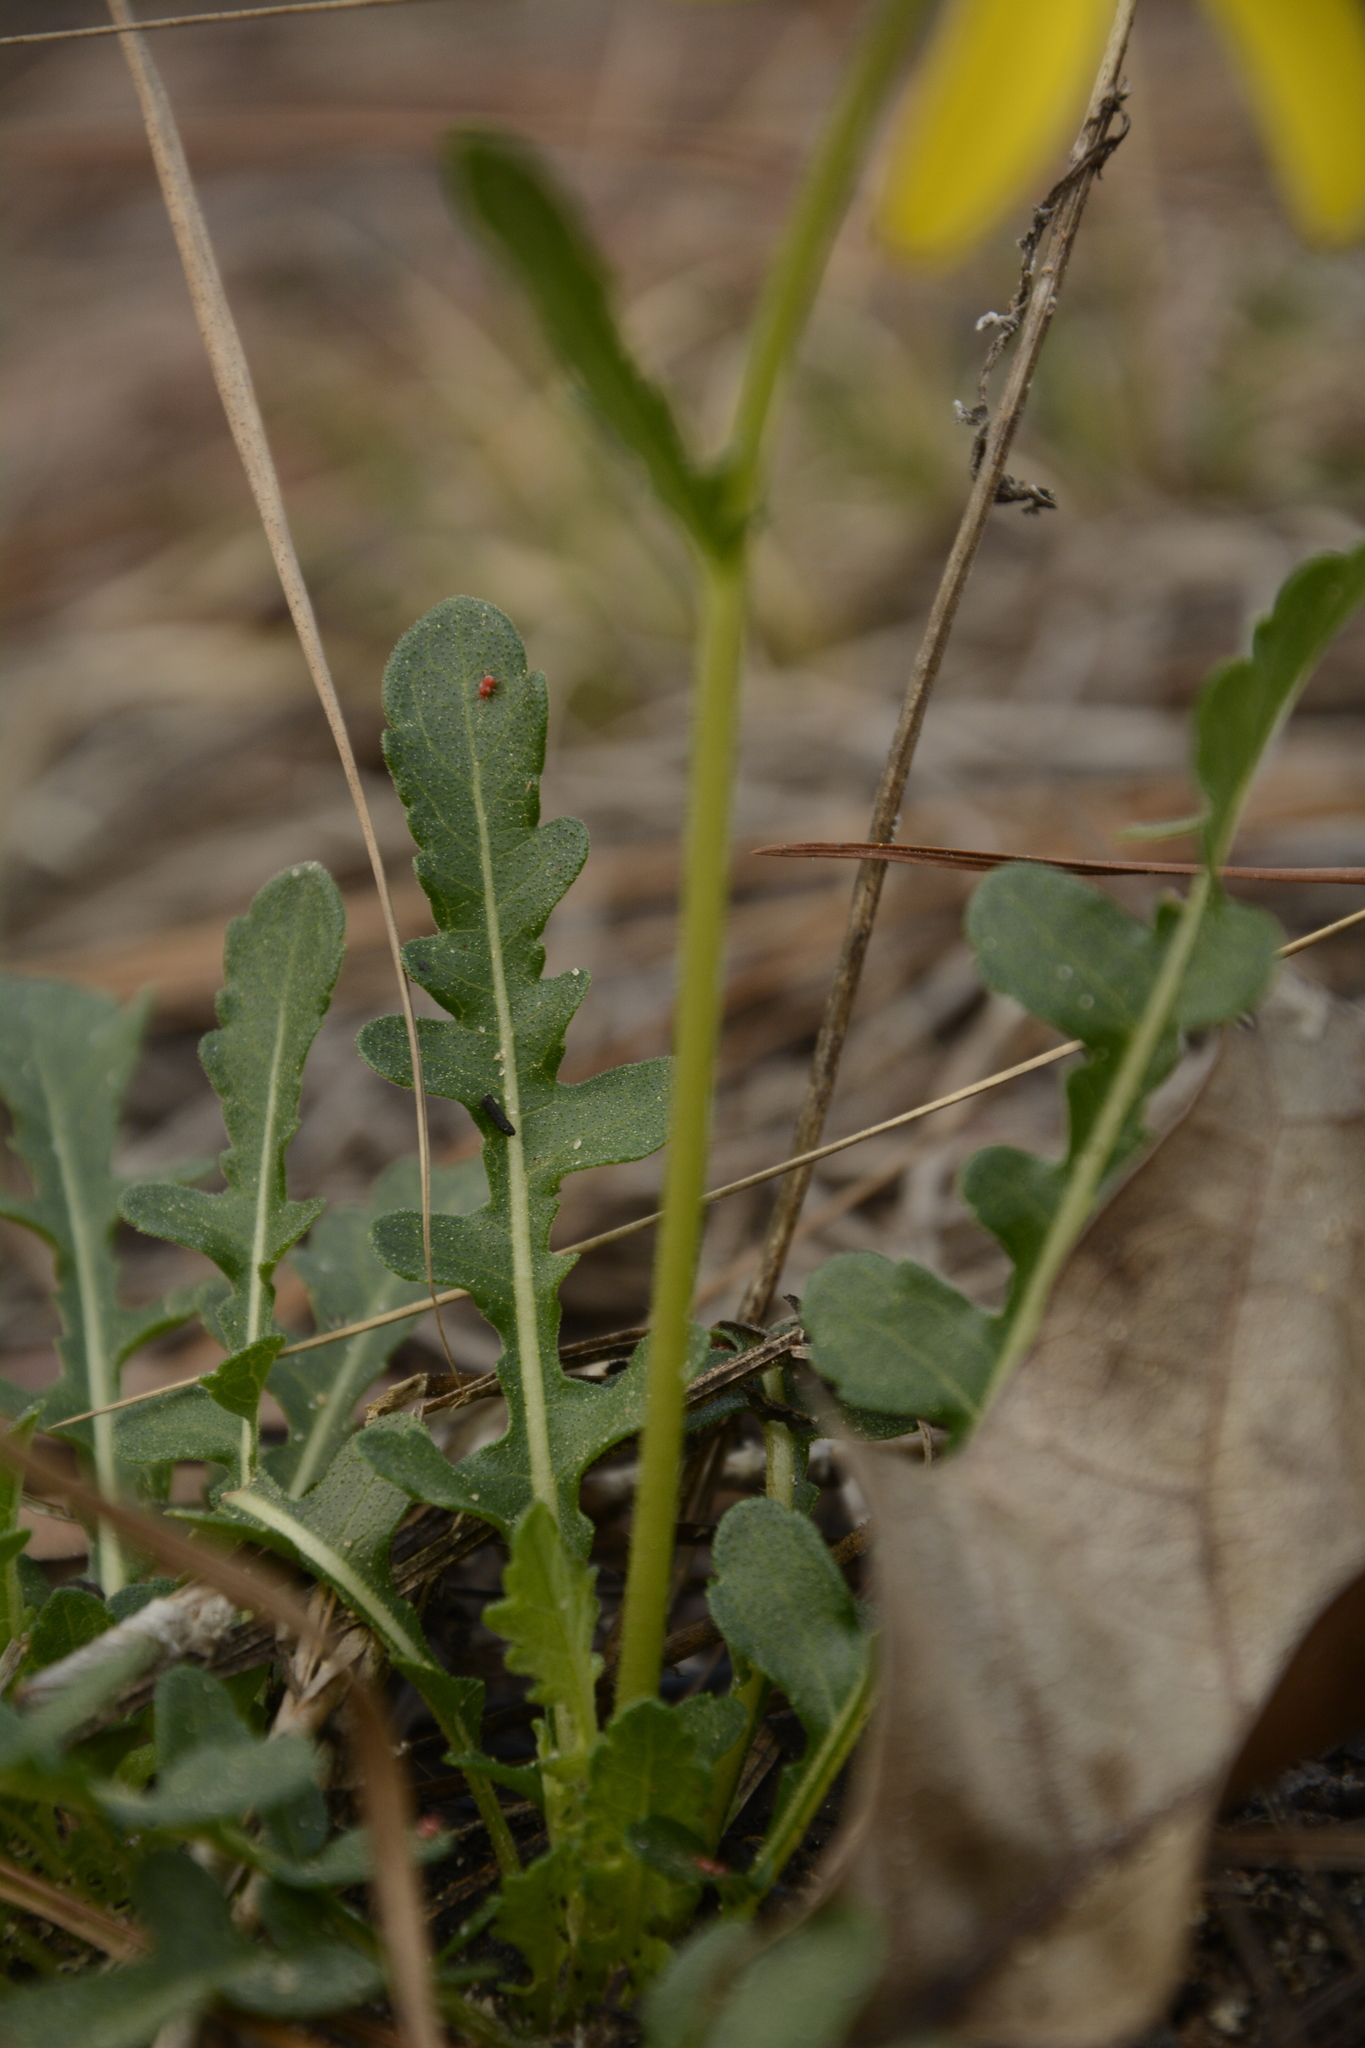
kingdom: Plantae
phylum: Tracheophyta
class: Magnoliopsida
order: Asterales
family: Asteraceae
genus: Berlandiera
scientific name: Berlandiera subacaulis
